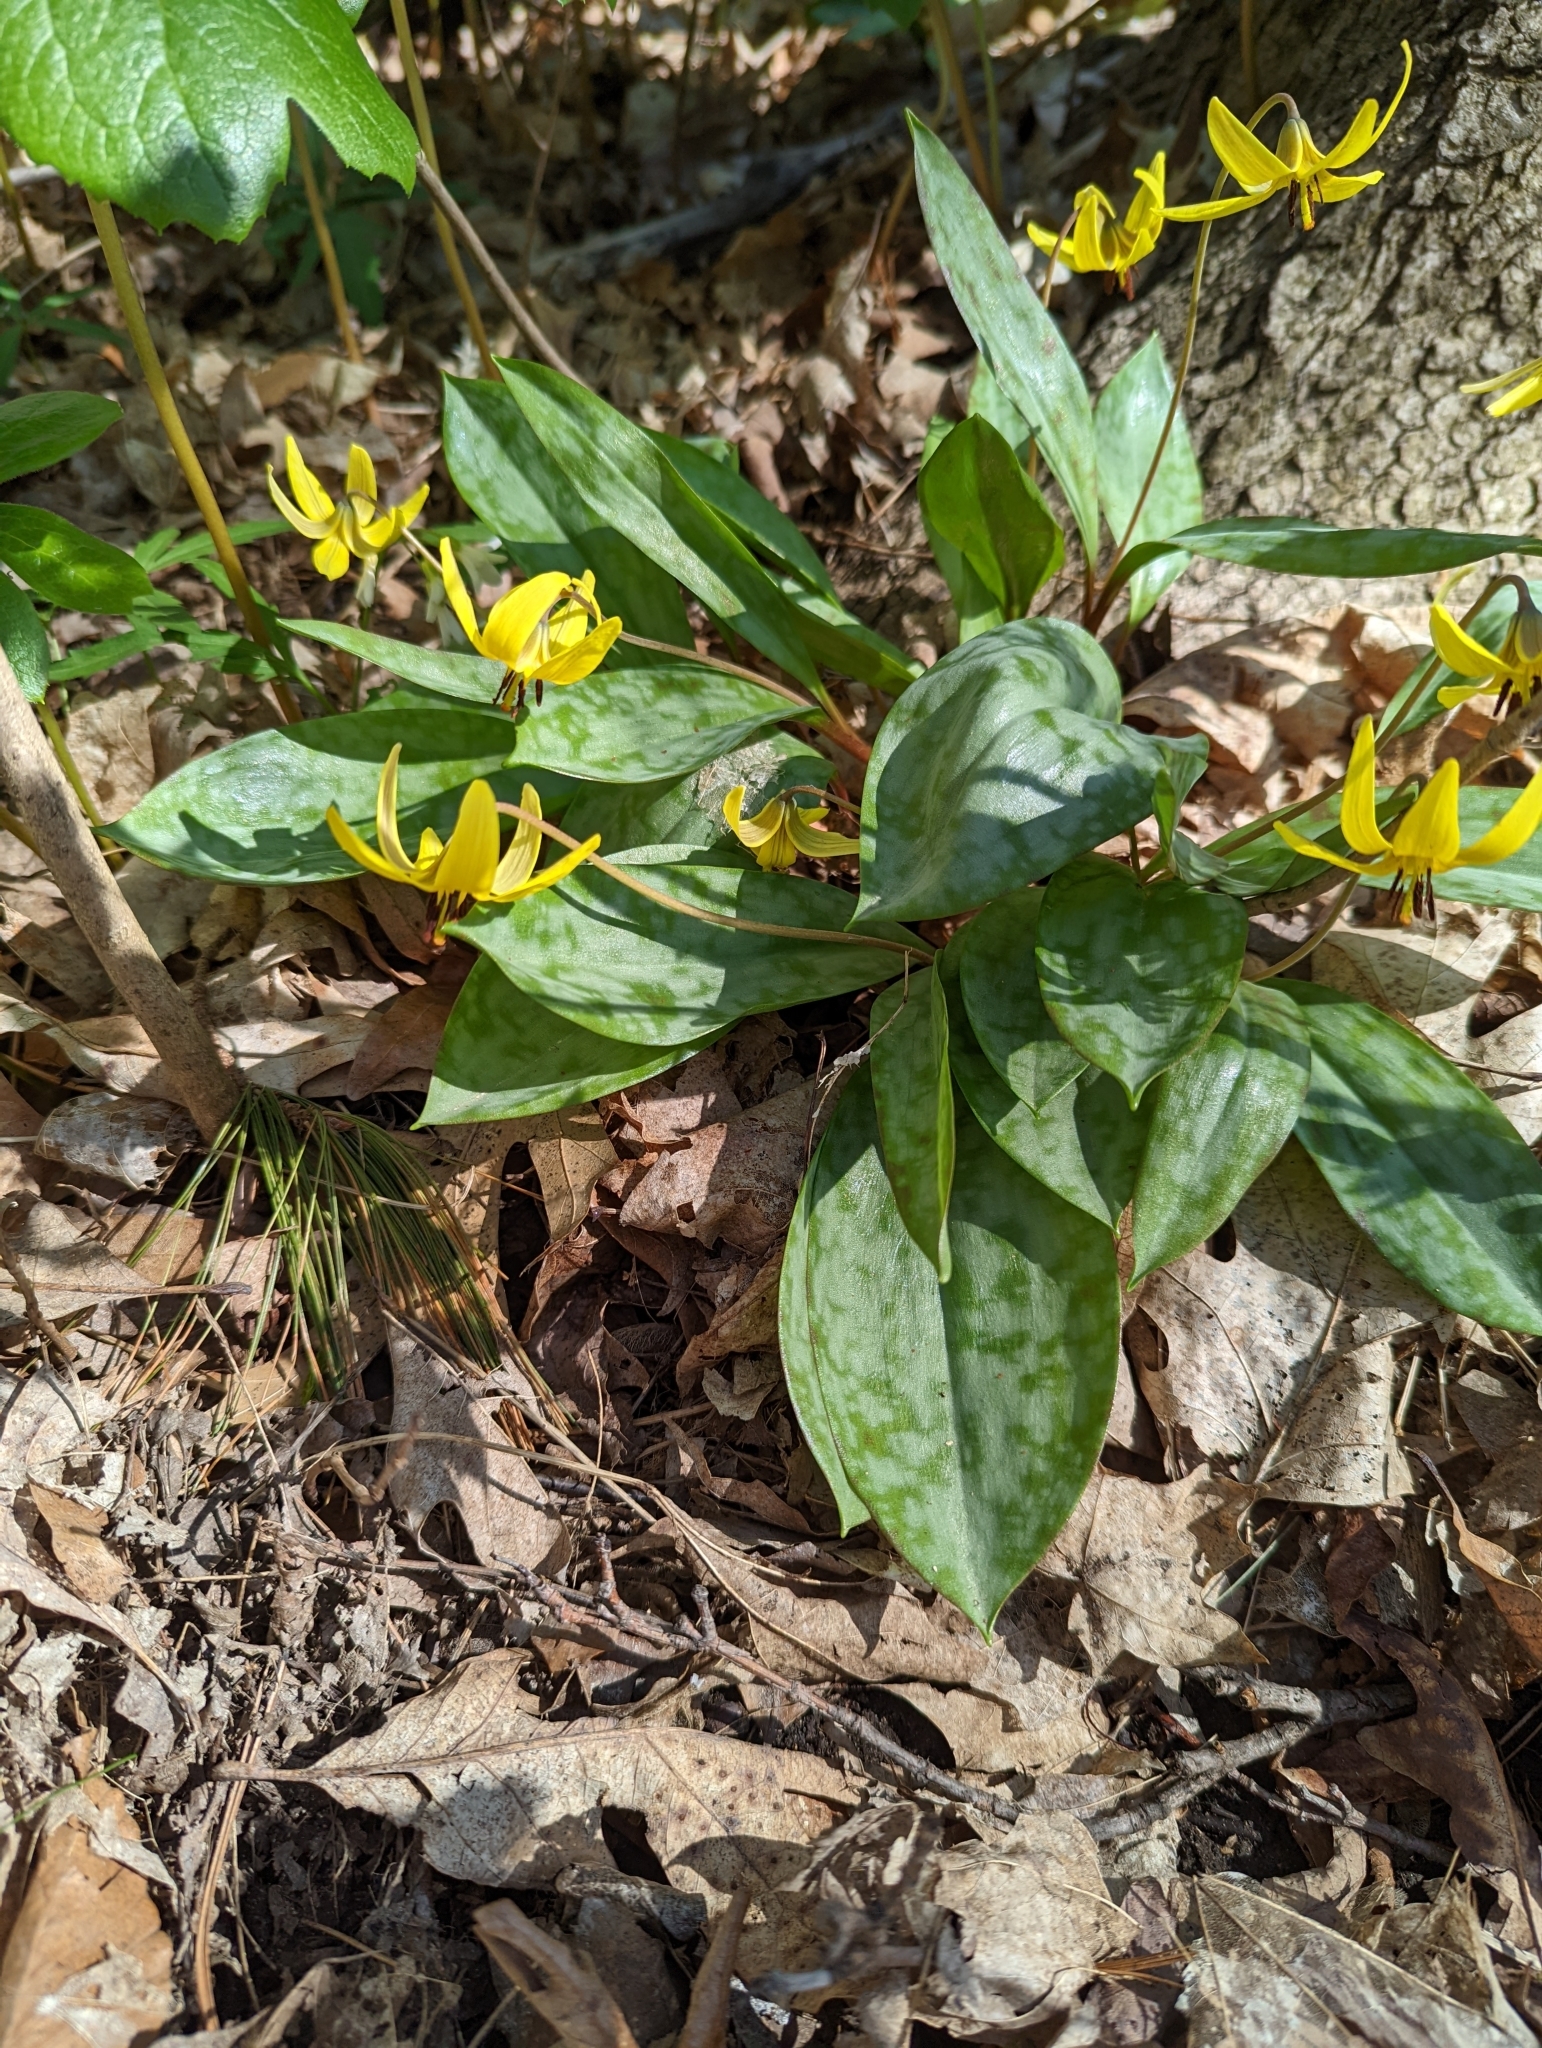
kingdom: Plantae
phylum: Tracheophyta
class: Liliopsida
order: Liliales
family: Liliaceae
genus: Erythronium
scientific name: Erythronium americanum
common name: Yellow adder's-tongue
